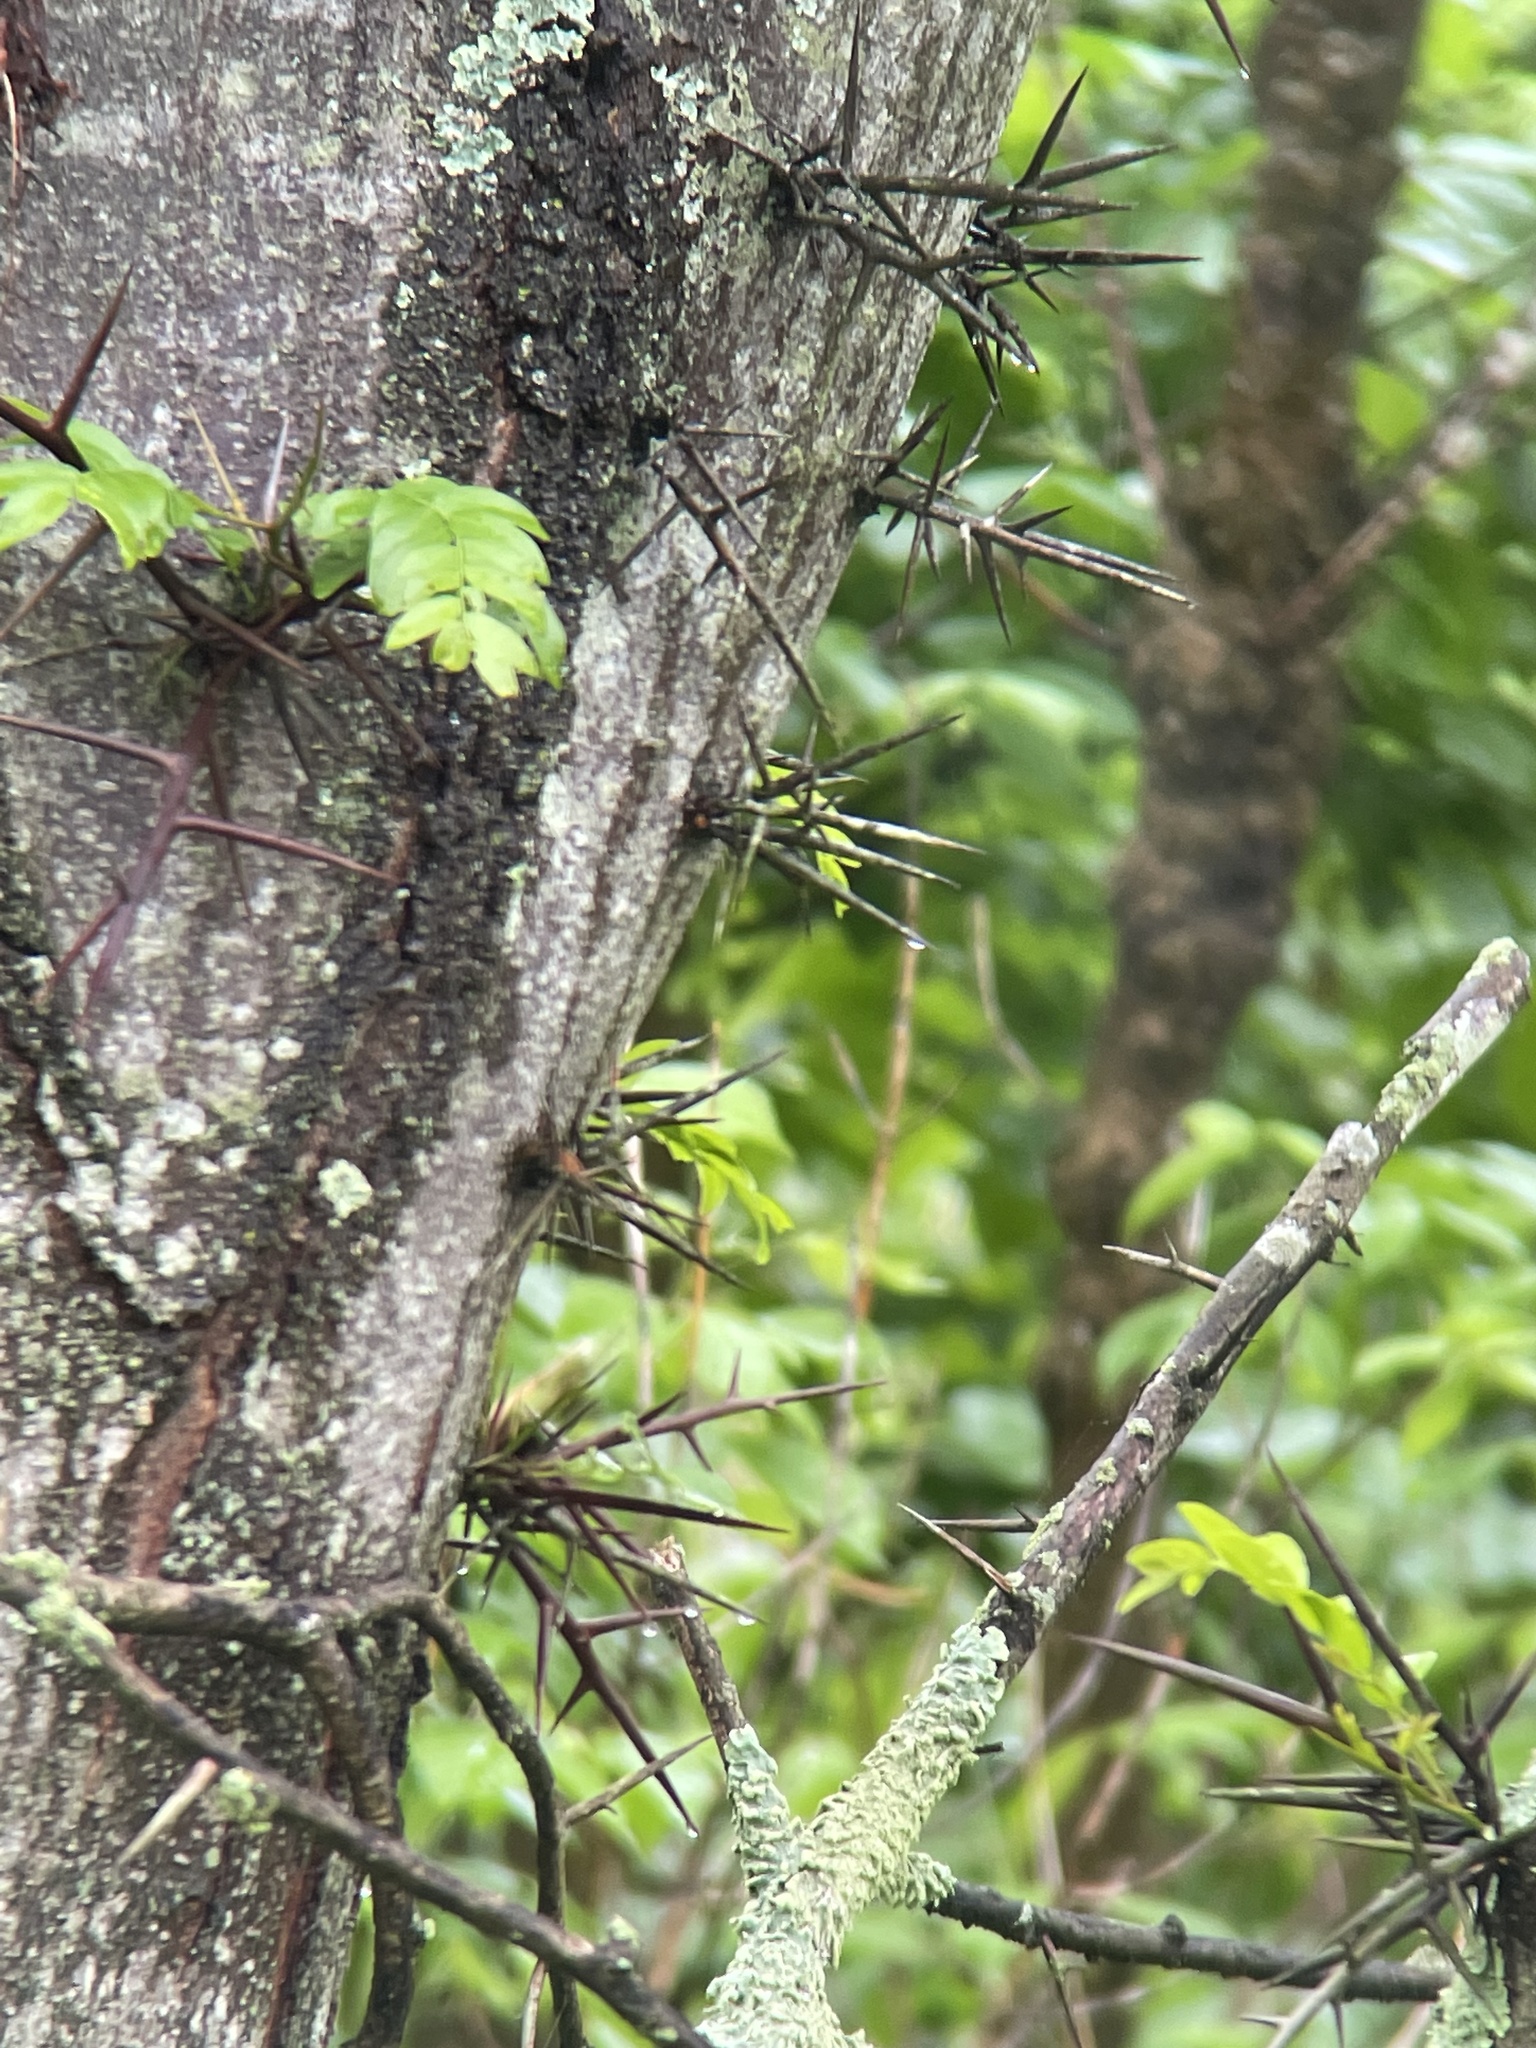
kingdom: Plantae
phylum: Tracheophyta
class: Magnoliopsida
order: Fabales
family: Fabaceae
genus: Gleditsia
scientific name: Gleditsia triacanthos
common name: Common honeylocust
